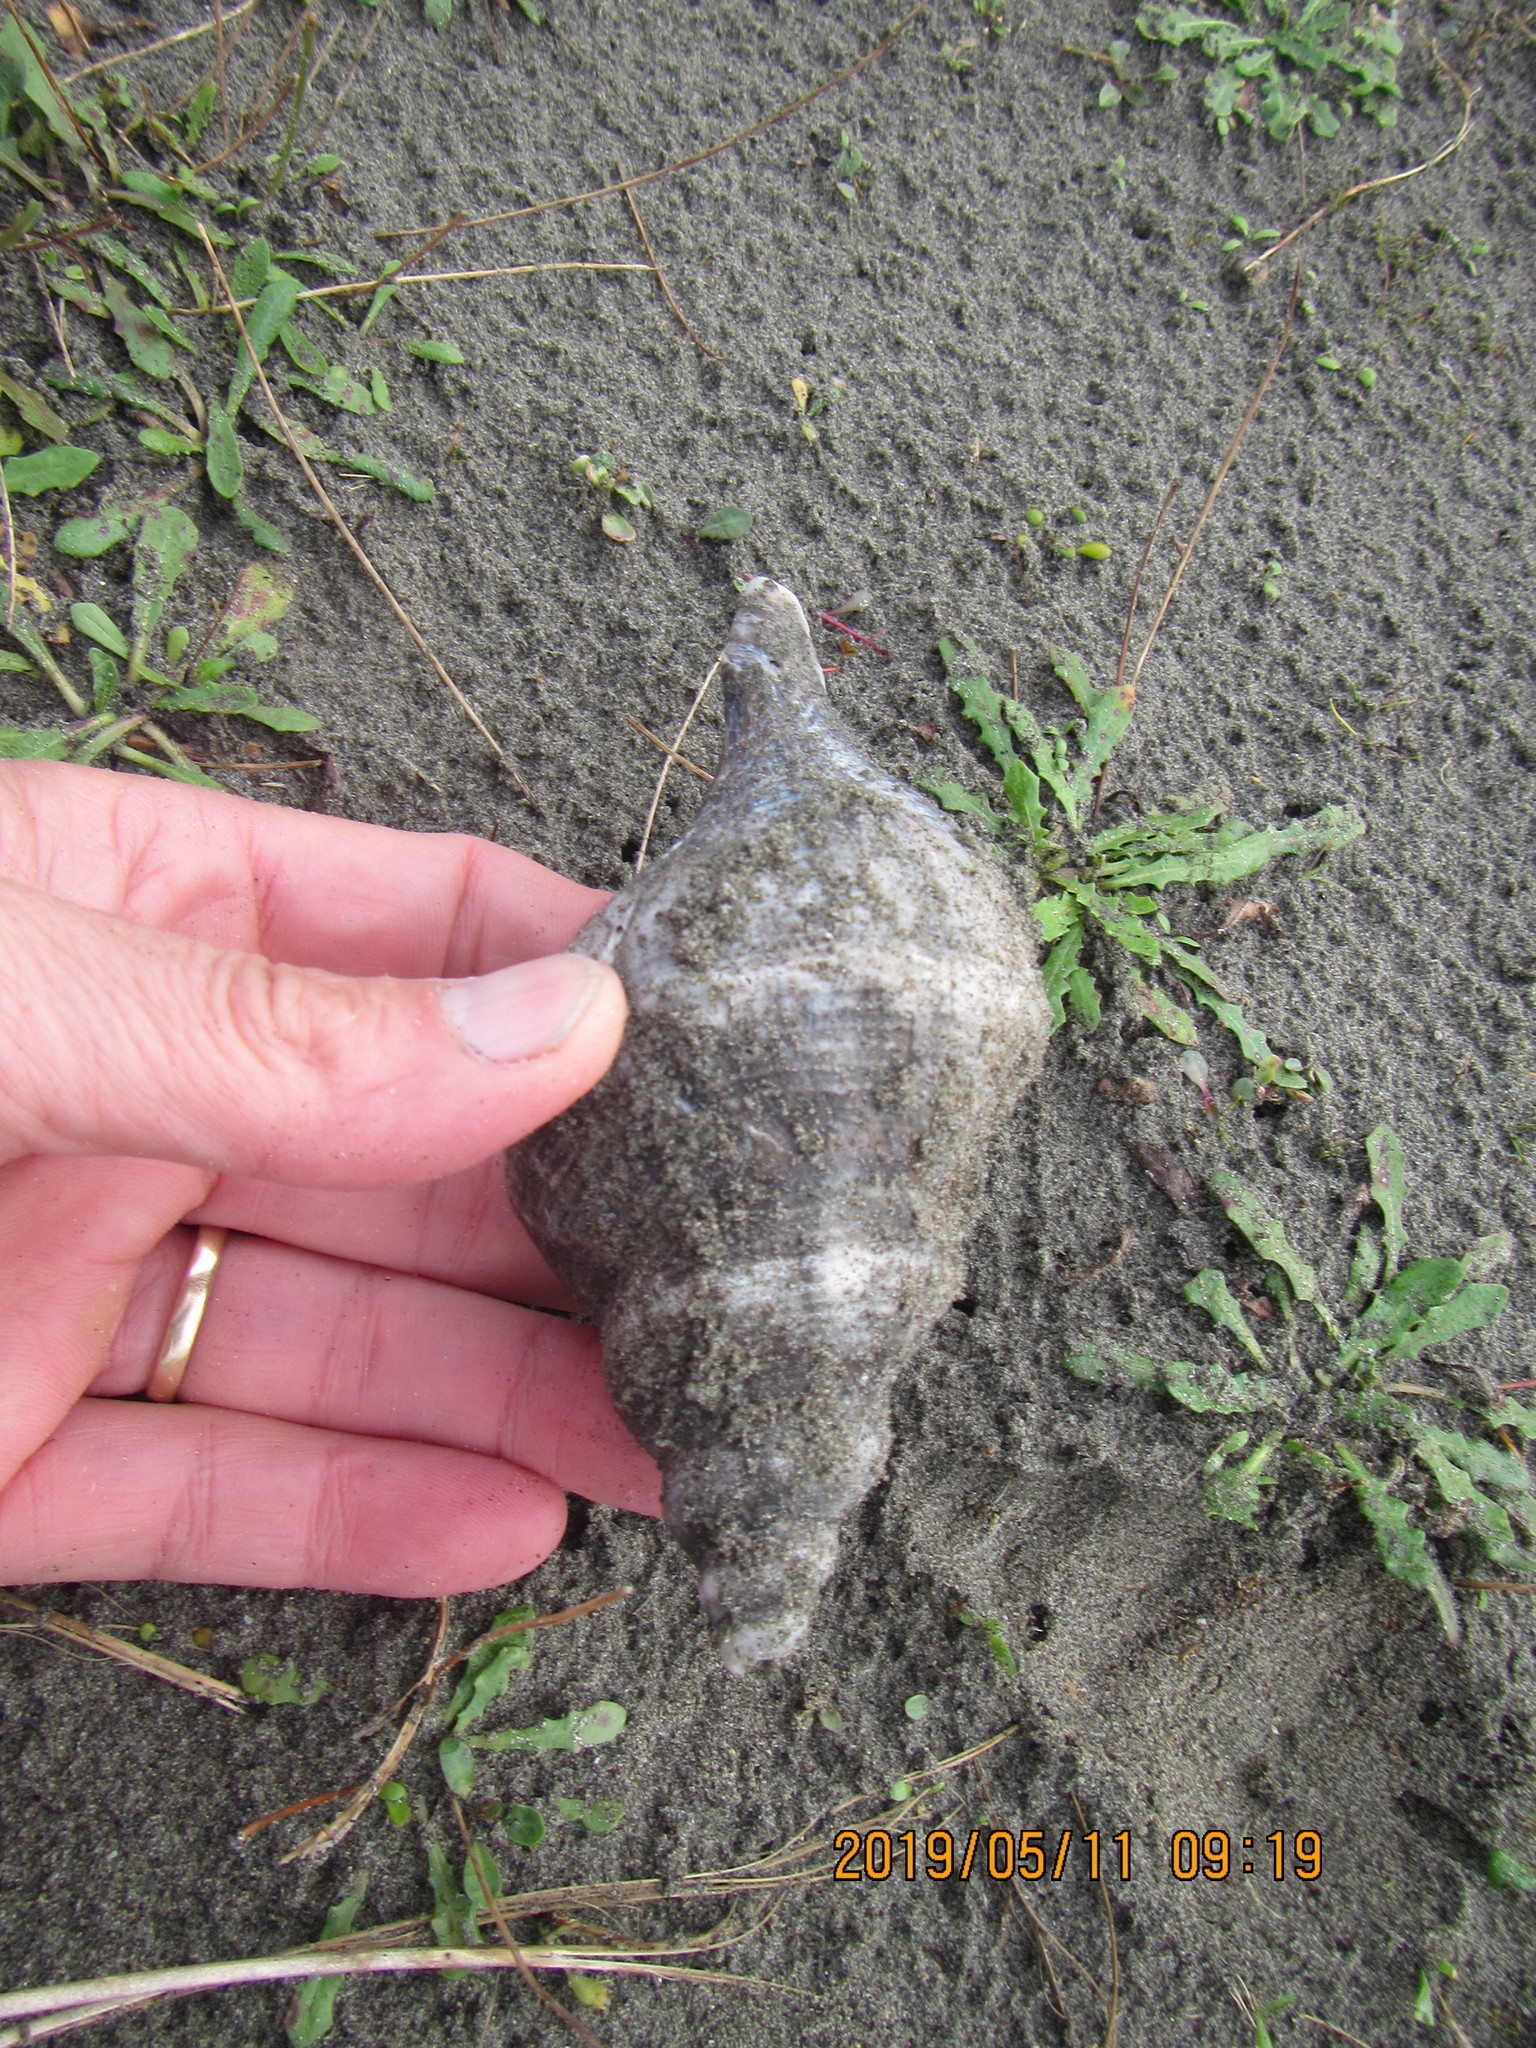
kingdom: Animalia
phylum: Mollusca
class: Gastropoda
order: Neogastropoda
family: Austrosiphonidae
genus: Penion
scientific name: Penion sulcatus
